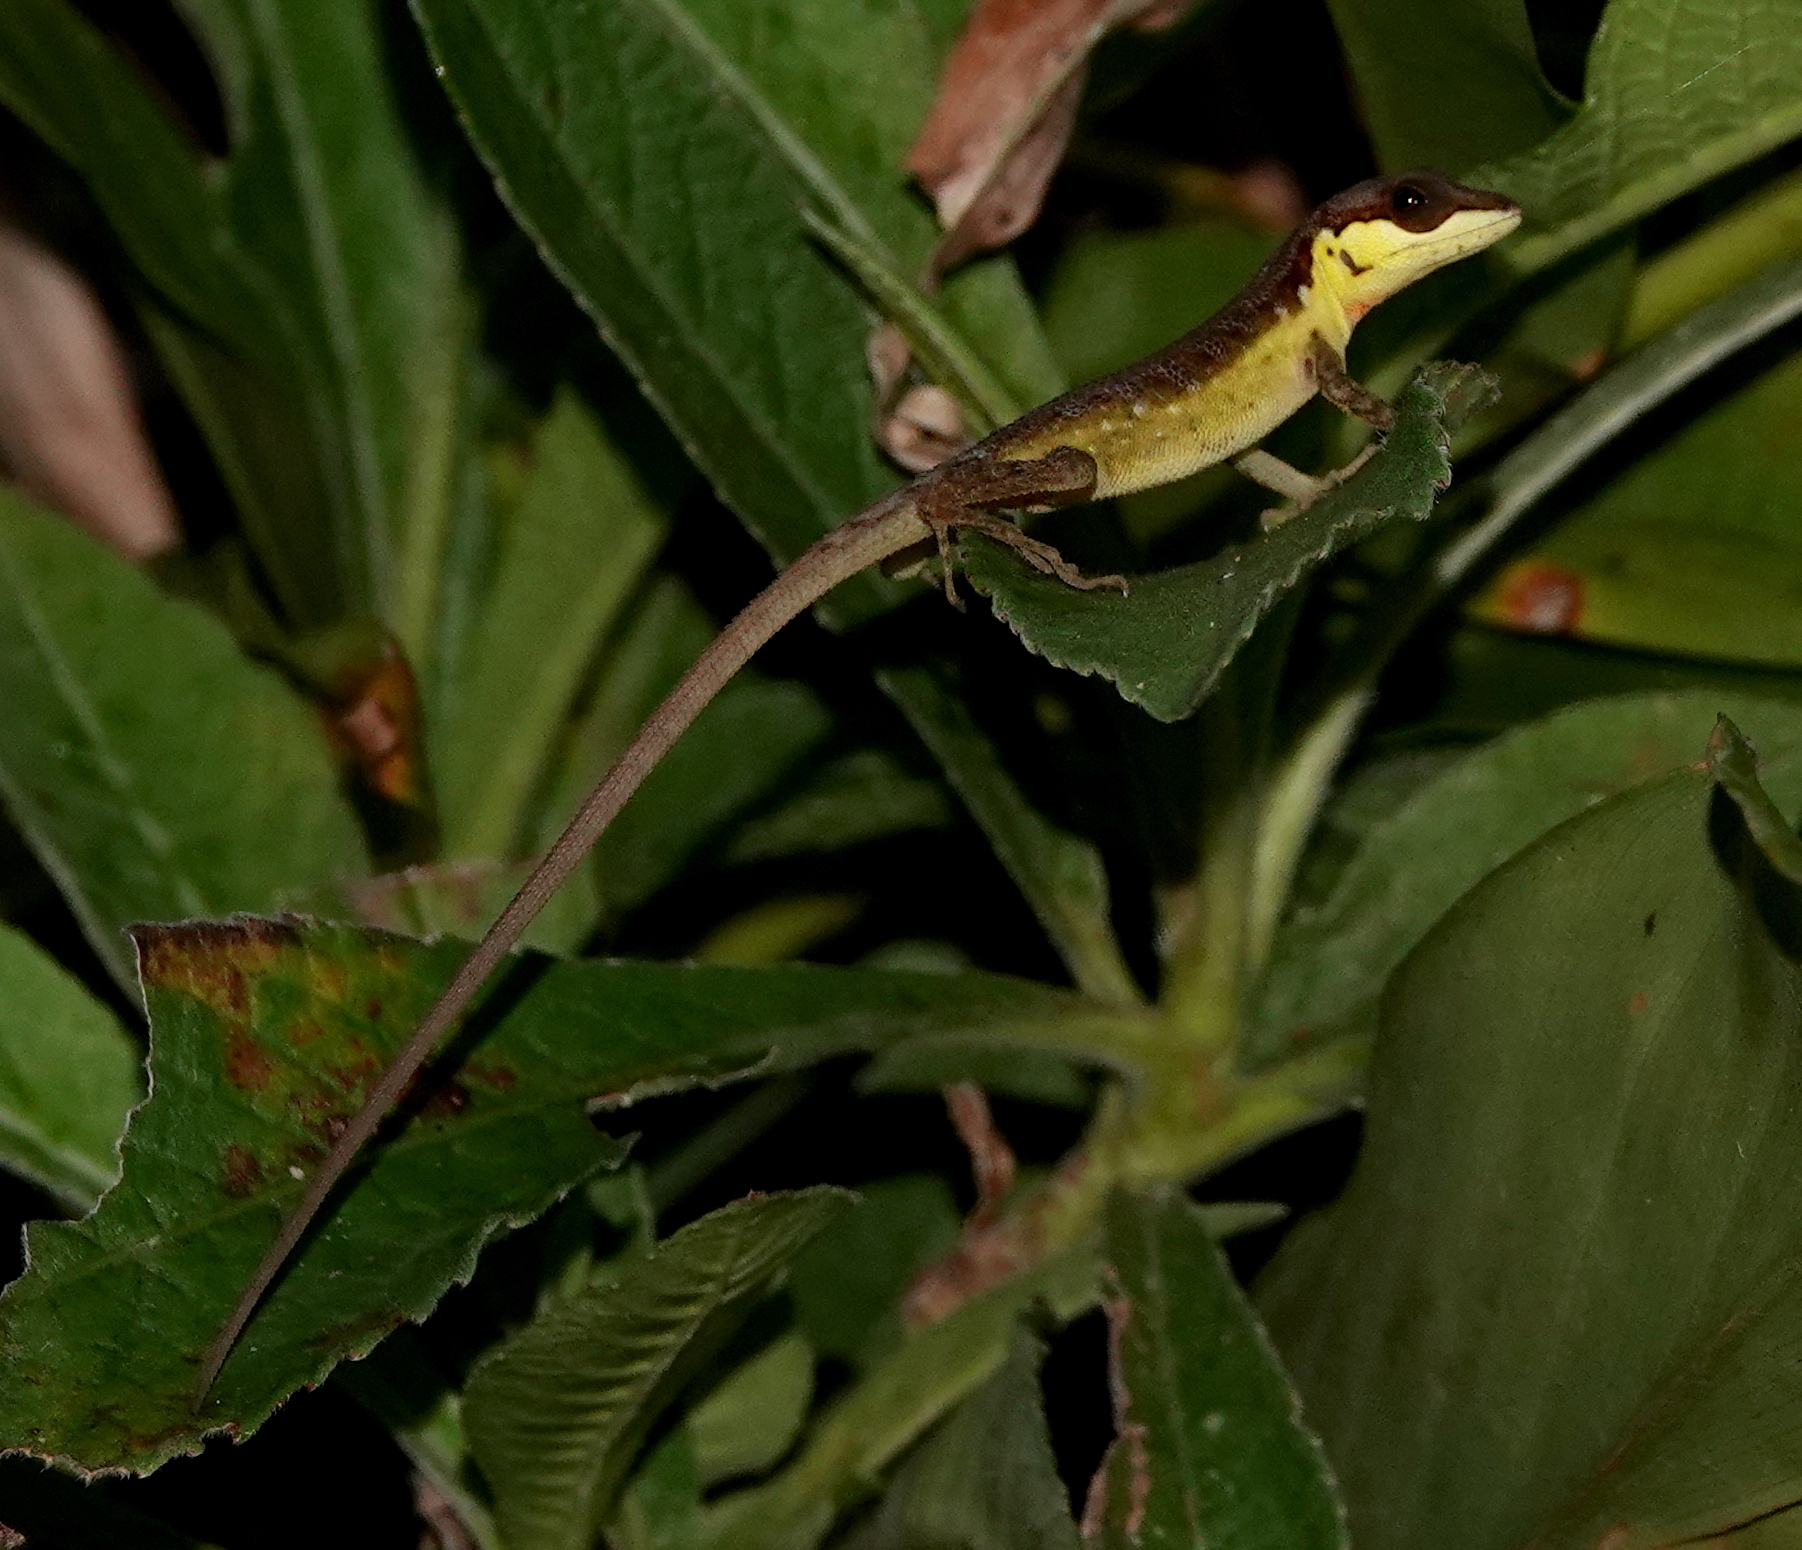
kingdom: Animalia
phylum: Chordata
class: Squamata
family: Dactyloidae
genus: Anolis
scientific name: Anolis notopholis
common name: Scalyback anole
